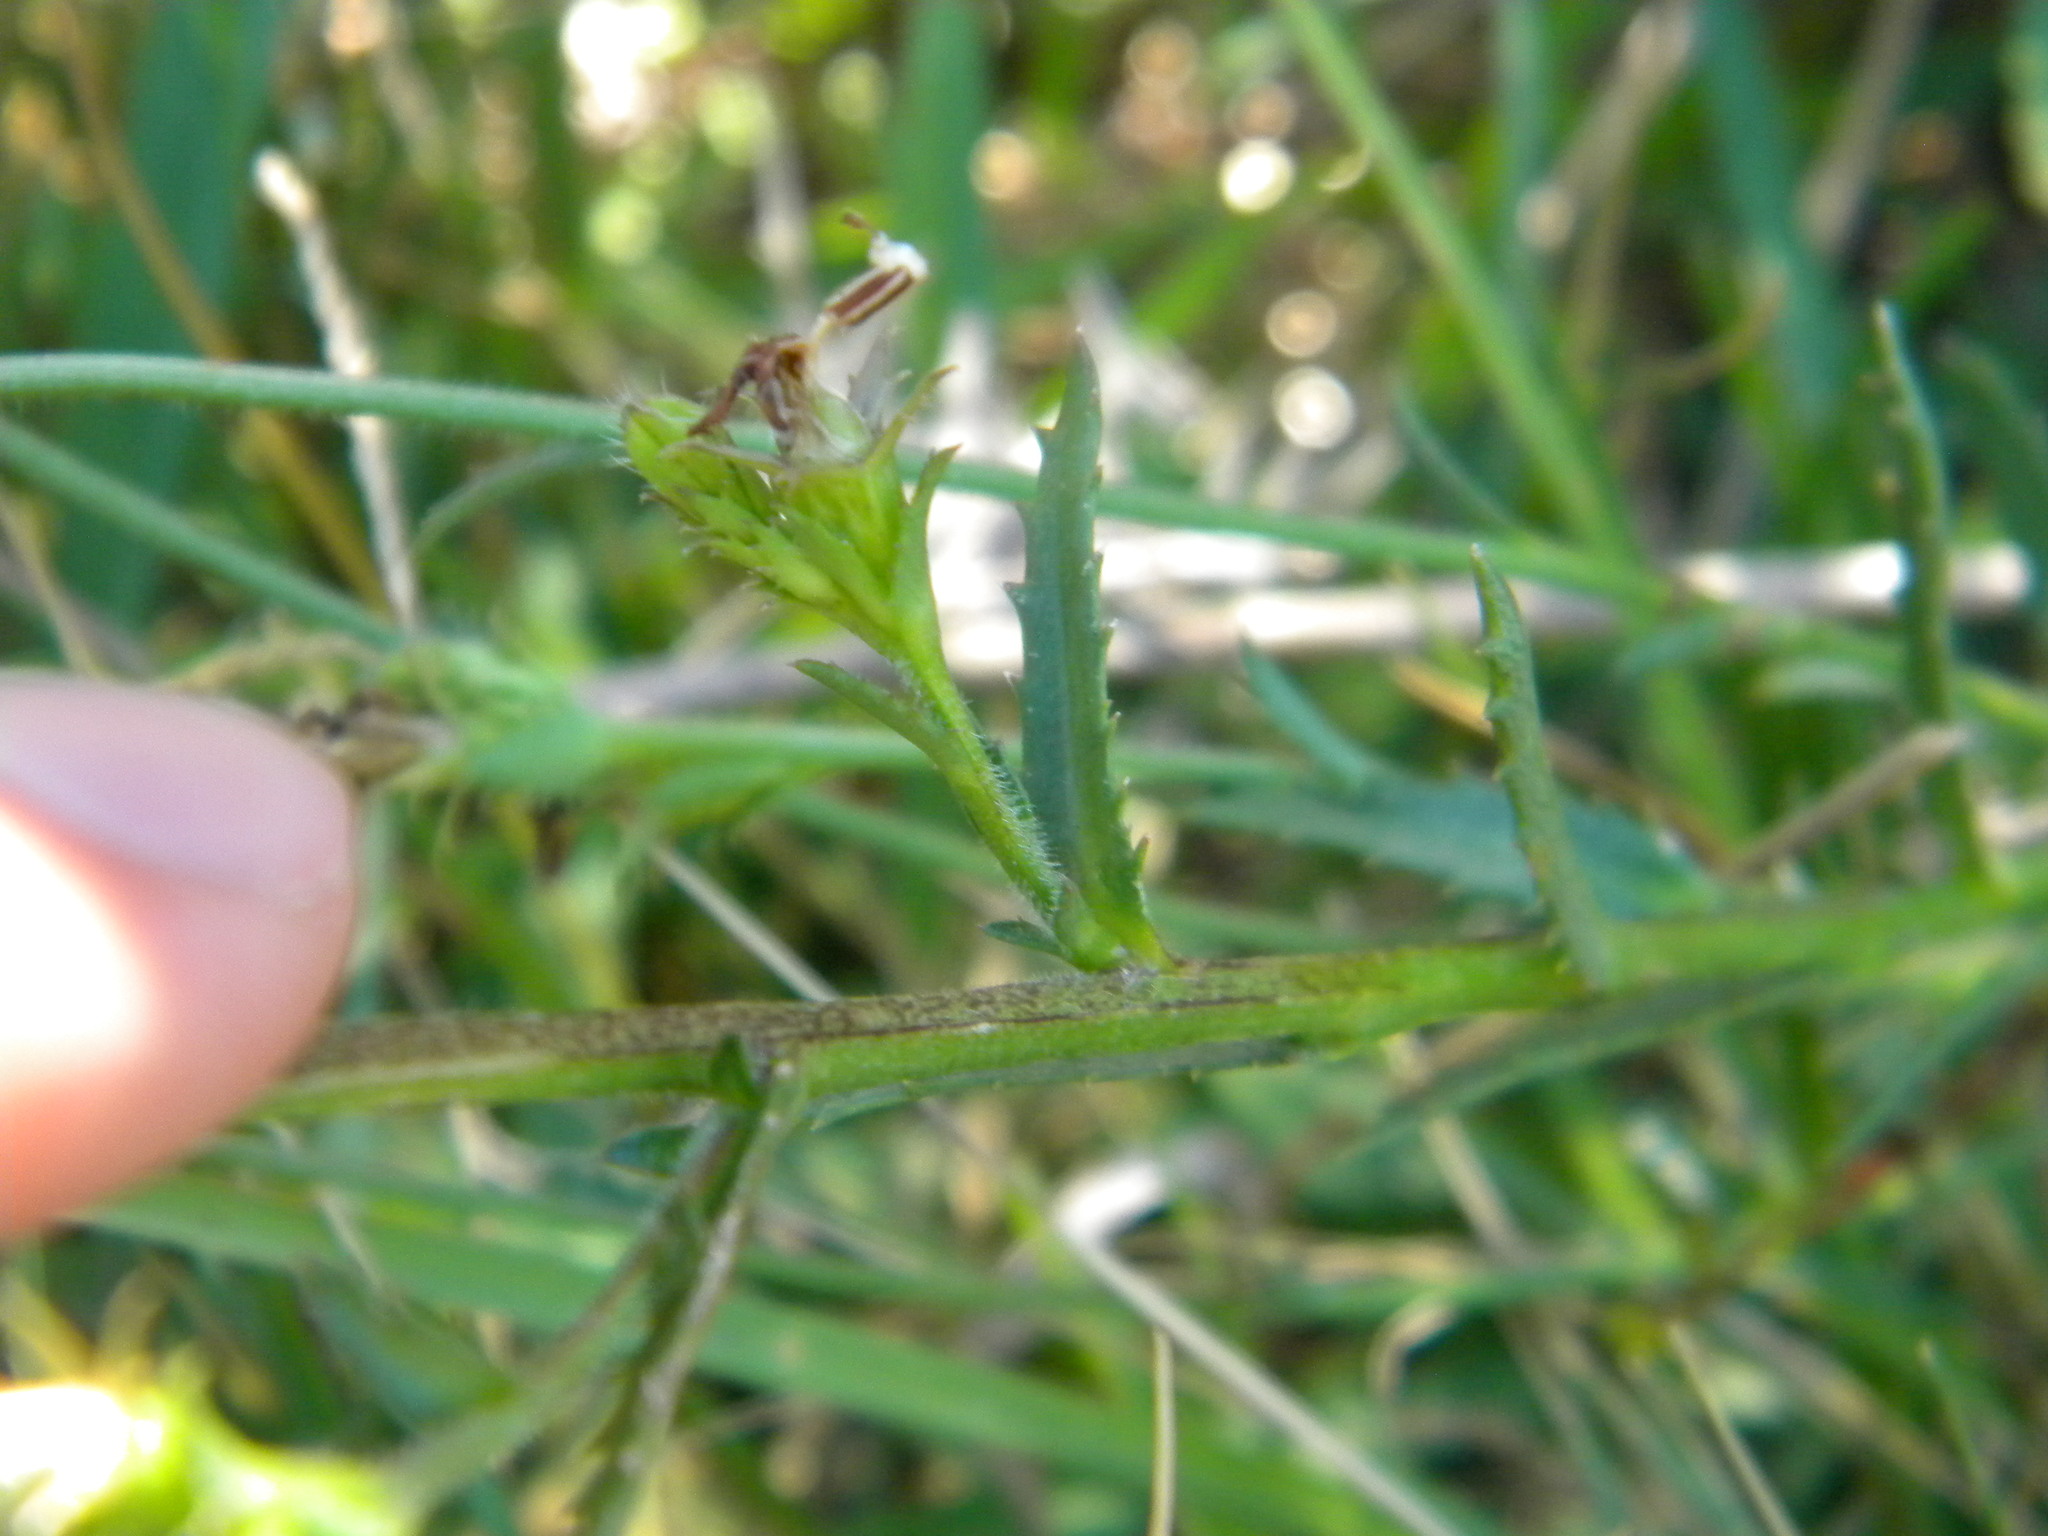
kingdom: Plantae
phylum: Tracheophyta
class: Magnoliopsida
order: Asterales
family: Campanulaceae
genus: Monopsis
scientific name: Monopsis lutea
